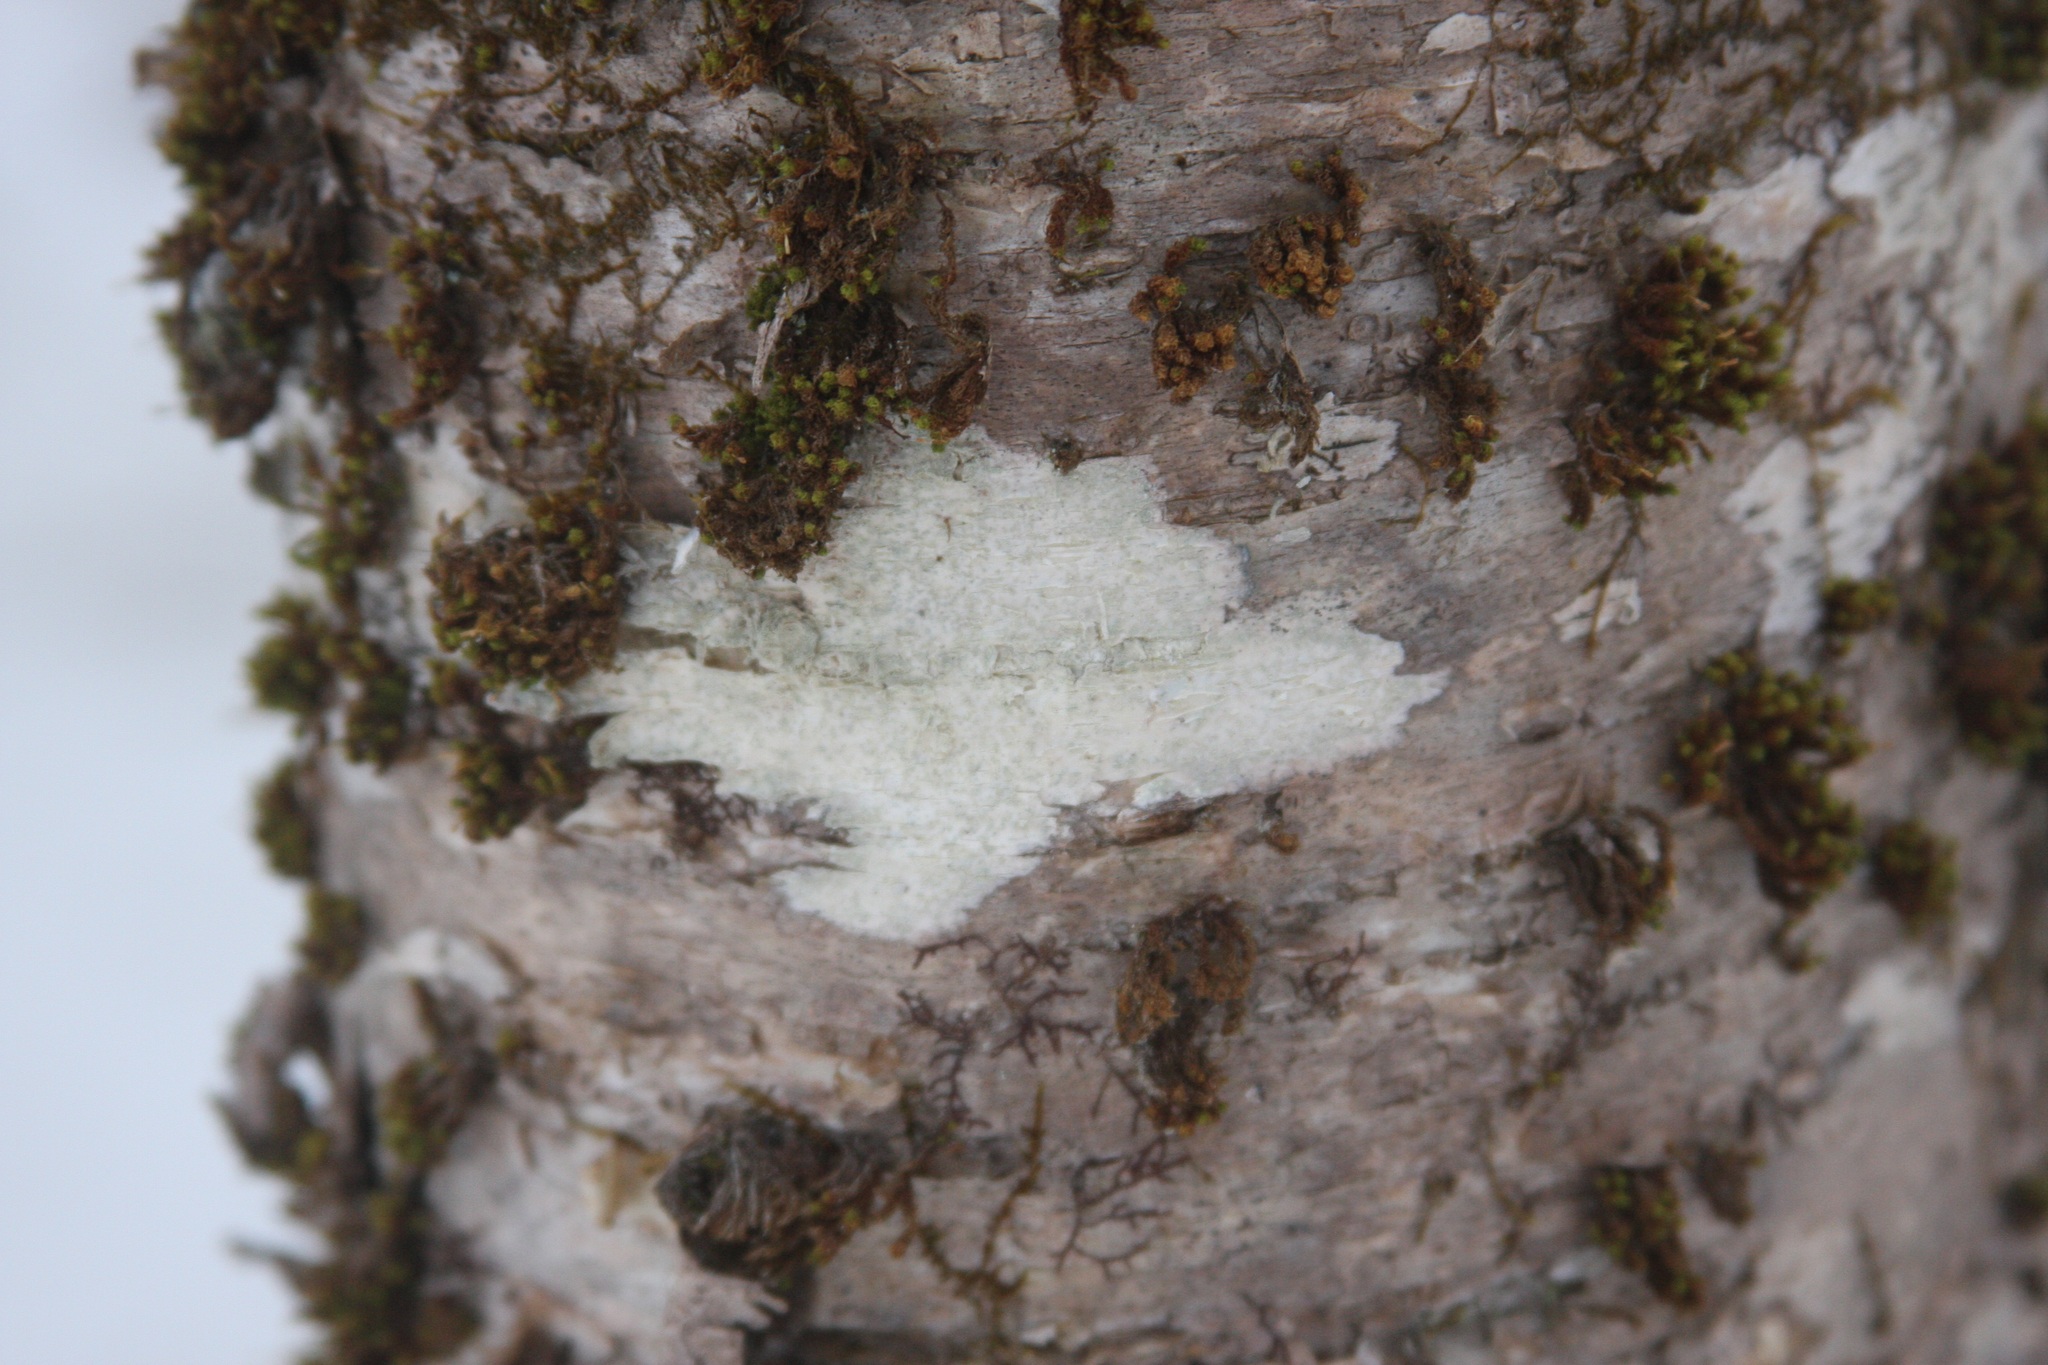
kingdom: Plantae
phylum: Bryophyta
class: Bryopsida
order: Orthotrichales
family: Orthotrichaceae
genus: Ulota
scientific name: Ulota crispa
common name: Crisped pincushion moss
